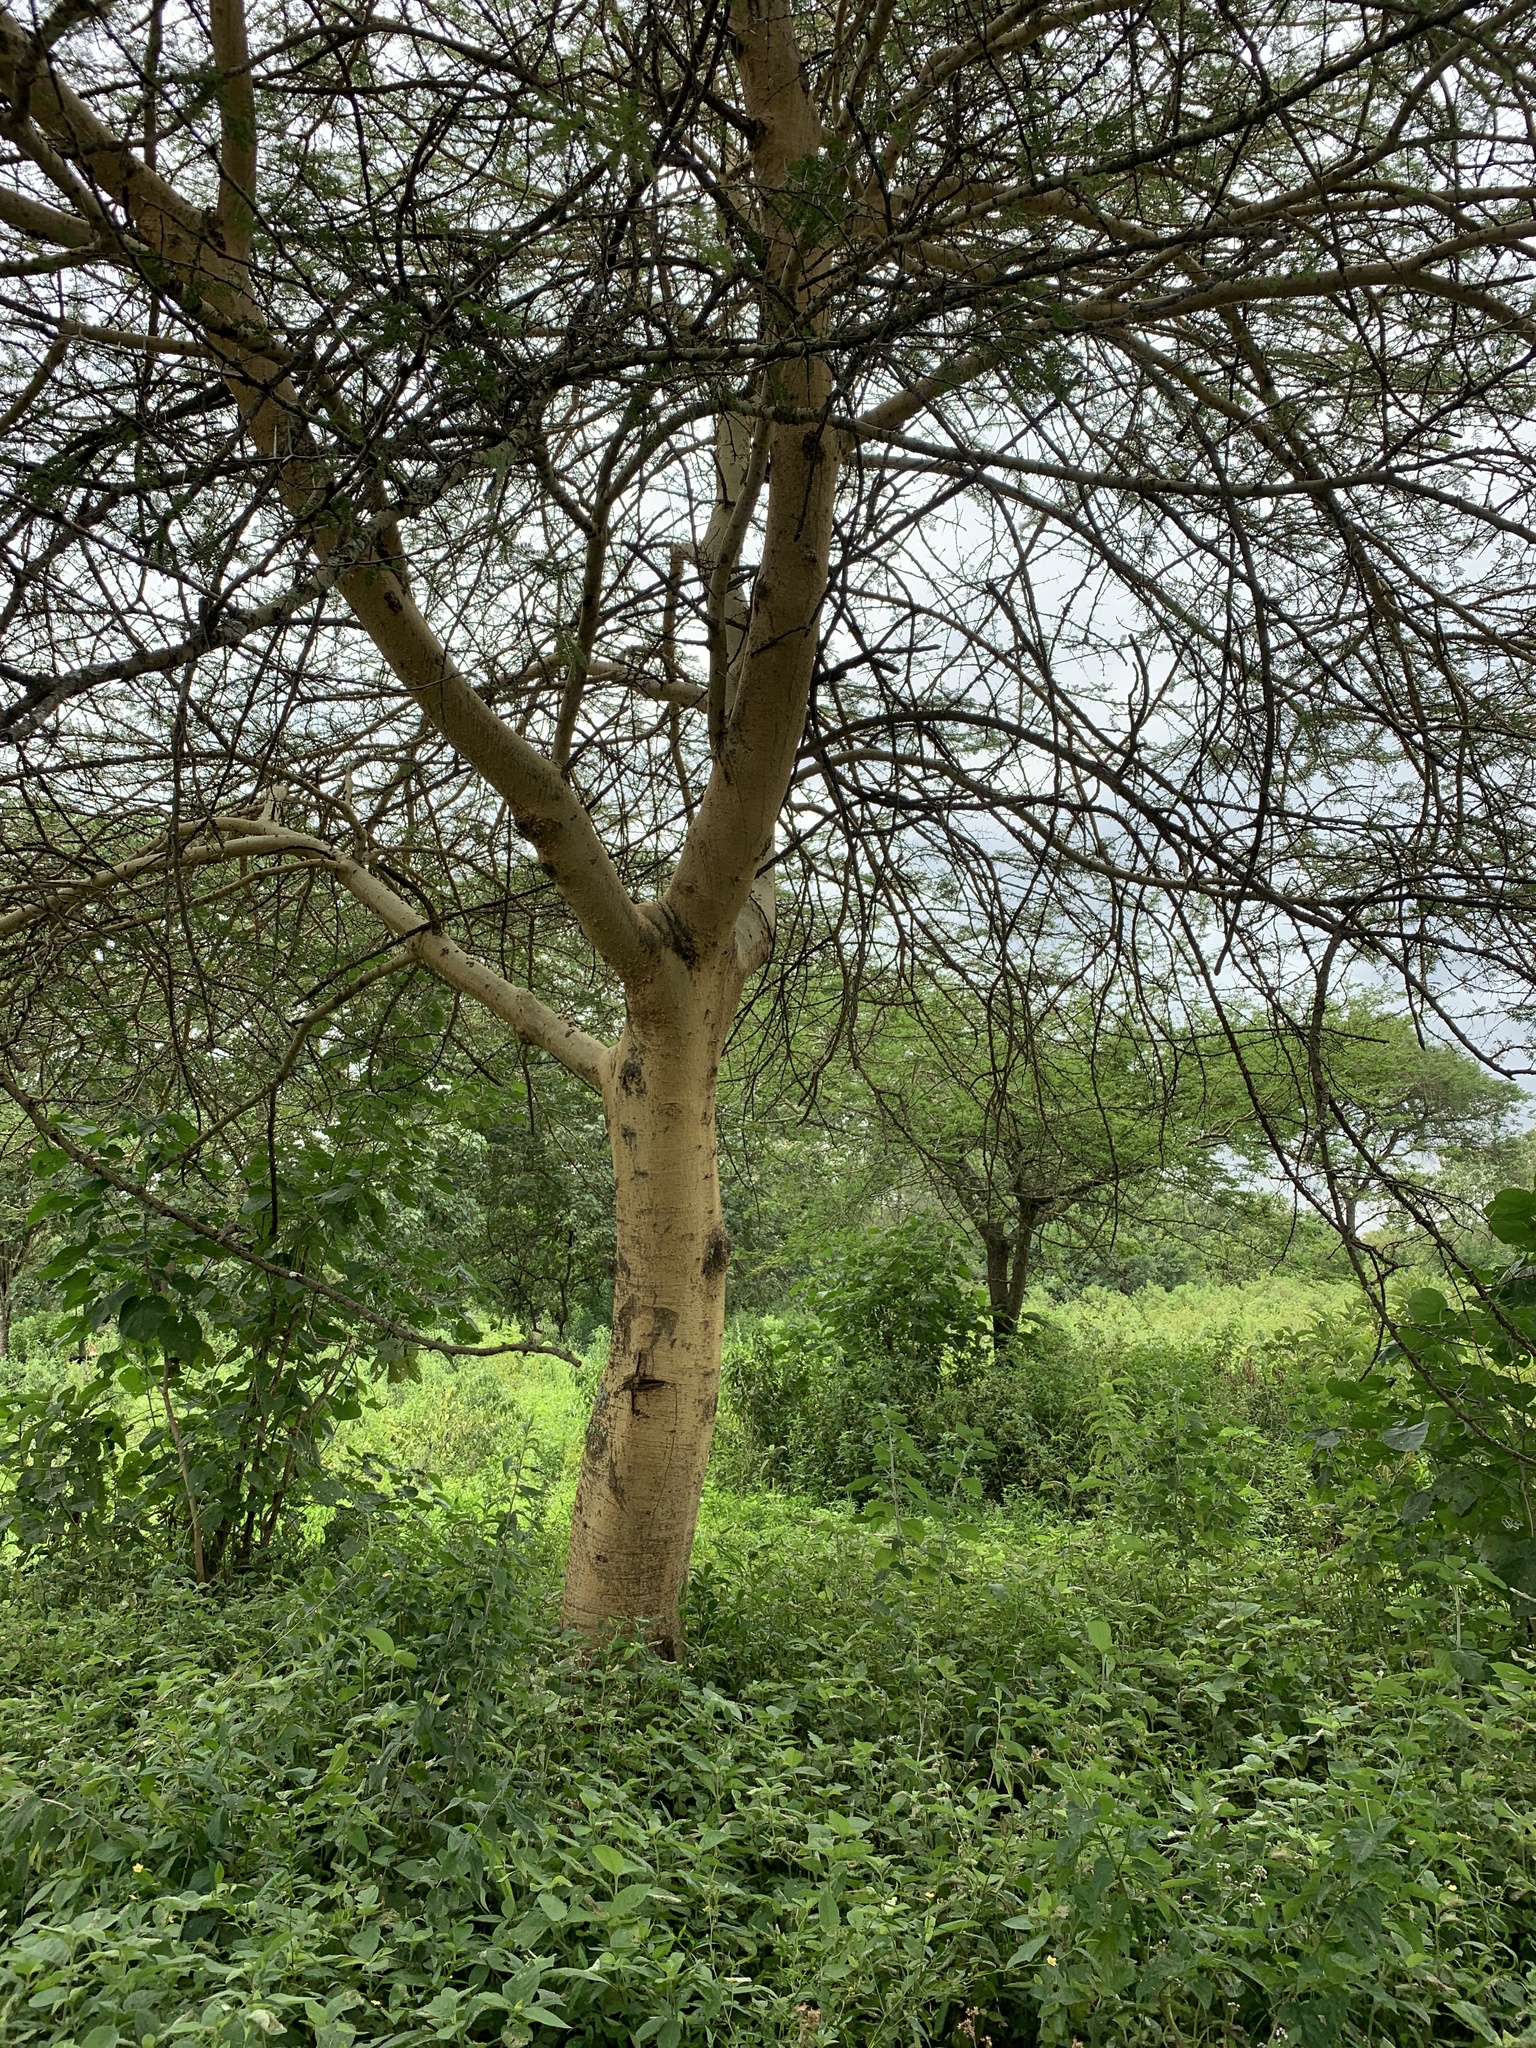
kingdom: Plantae
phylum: Tracheophyta
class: Magnoliopsida
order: Fabales
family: Fabaceae
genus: Vachellia
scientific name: Vachellia xanthophloea
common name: Fever tree
